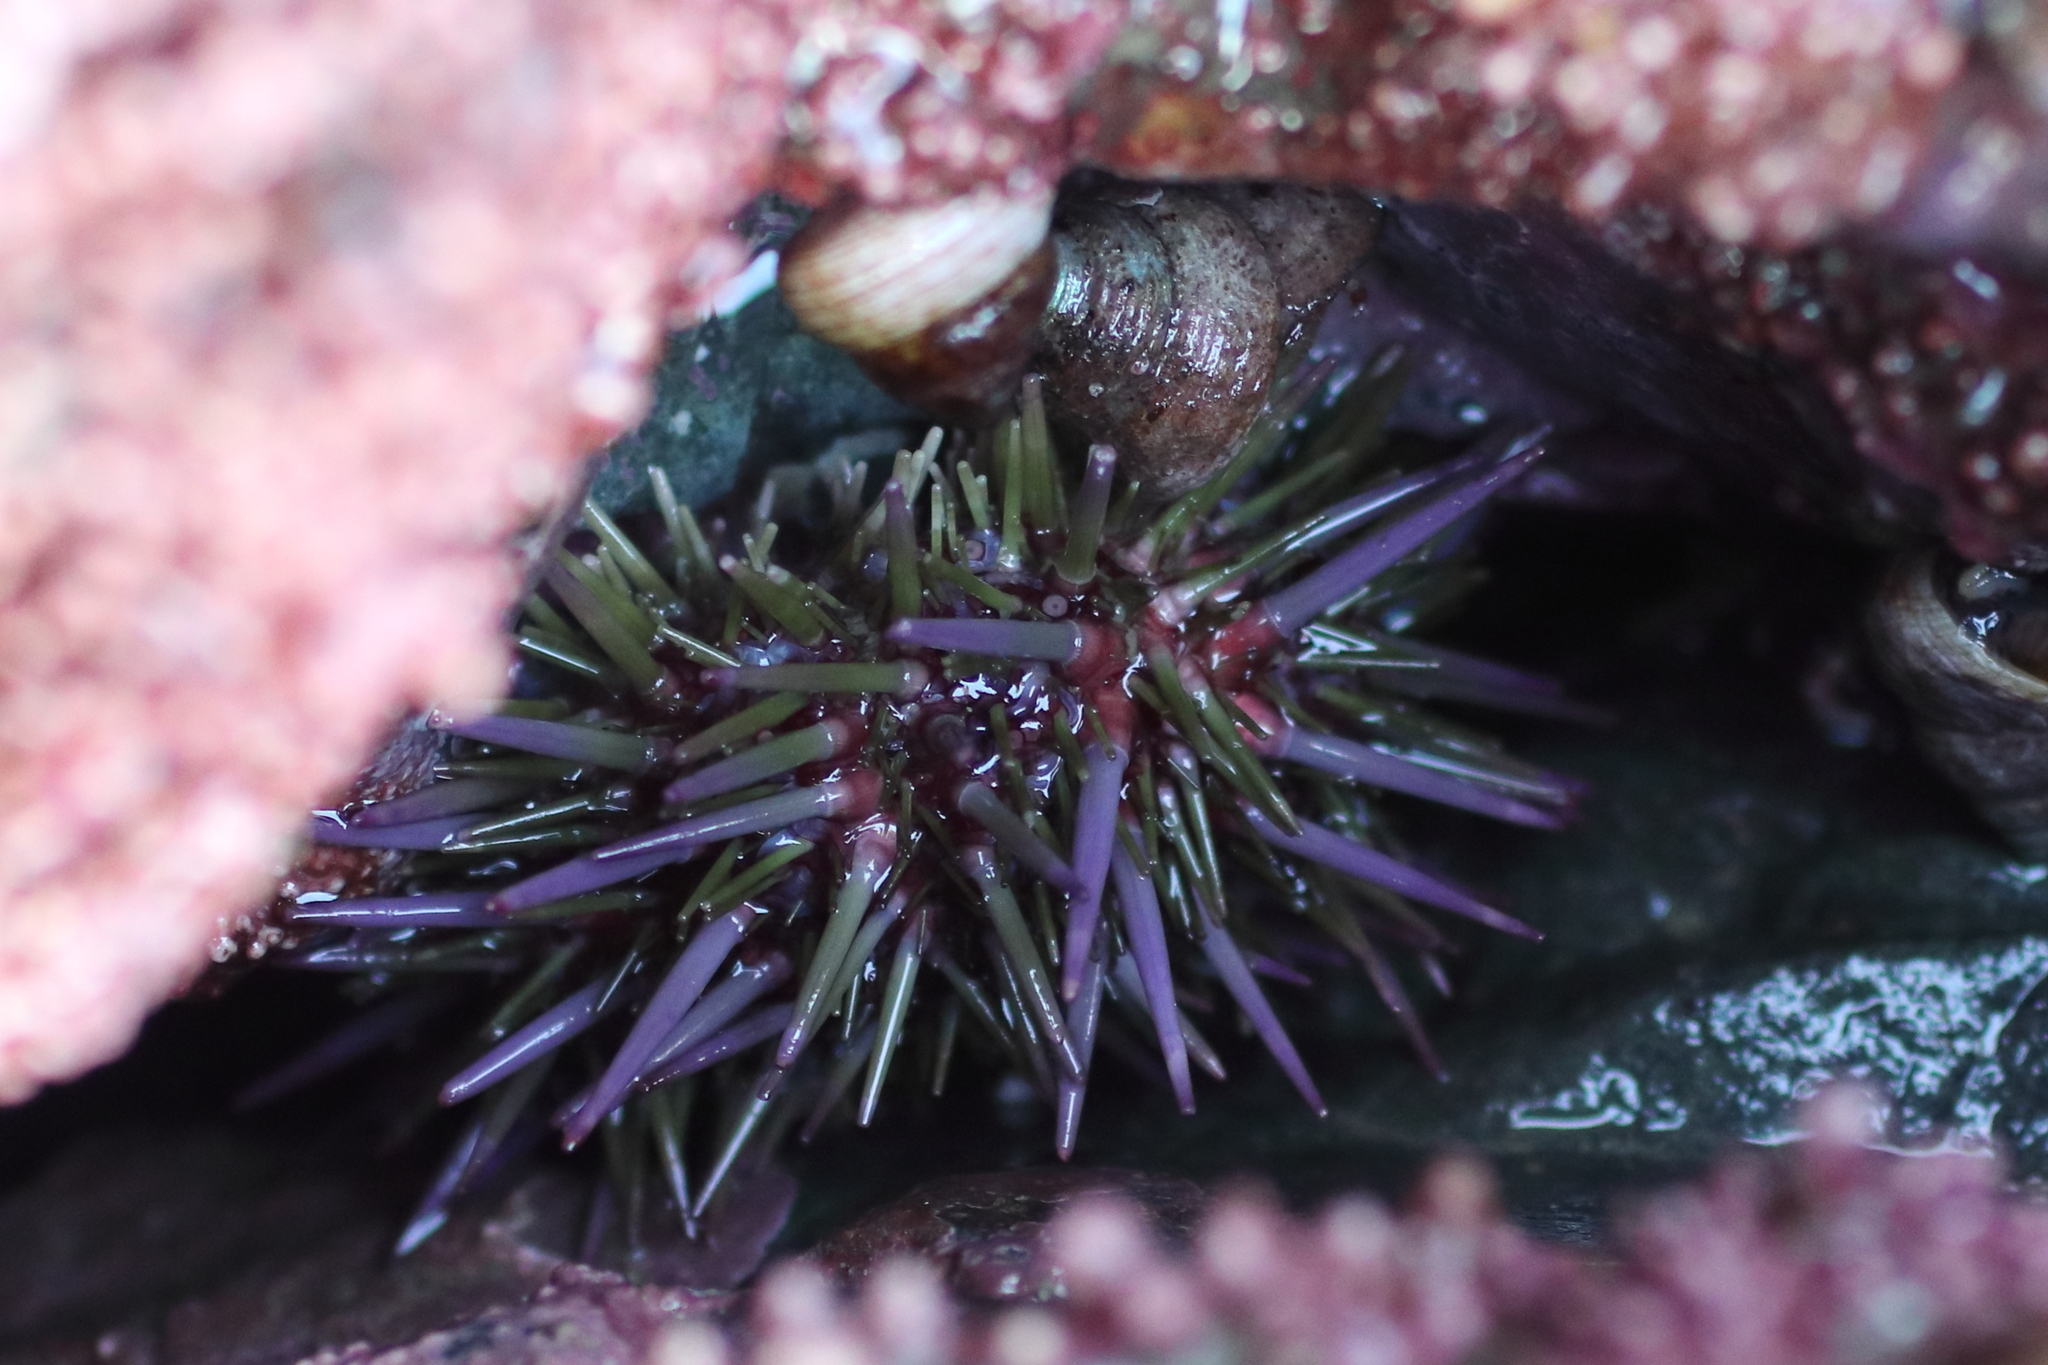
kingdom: Animalia
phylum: Echinodermata
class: Echinoidea
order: Camarodonta
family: Strongylocentrotidae
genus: Strongylocentrotus
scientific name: Strongylocentrotus purpuratus
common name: Purple sea urchin
